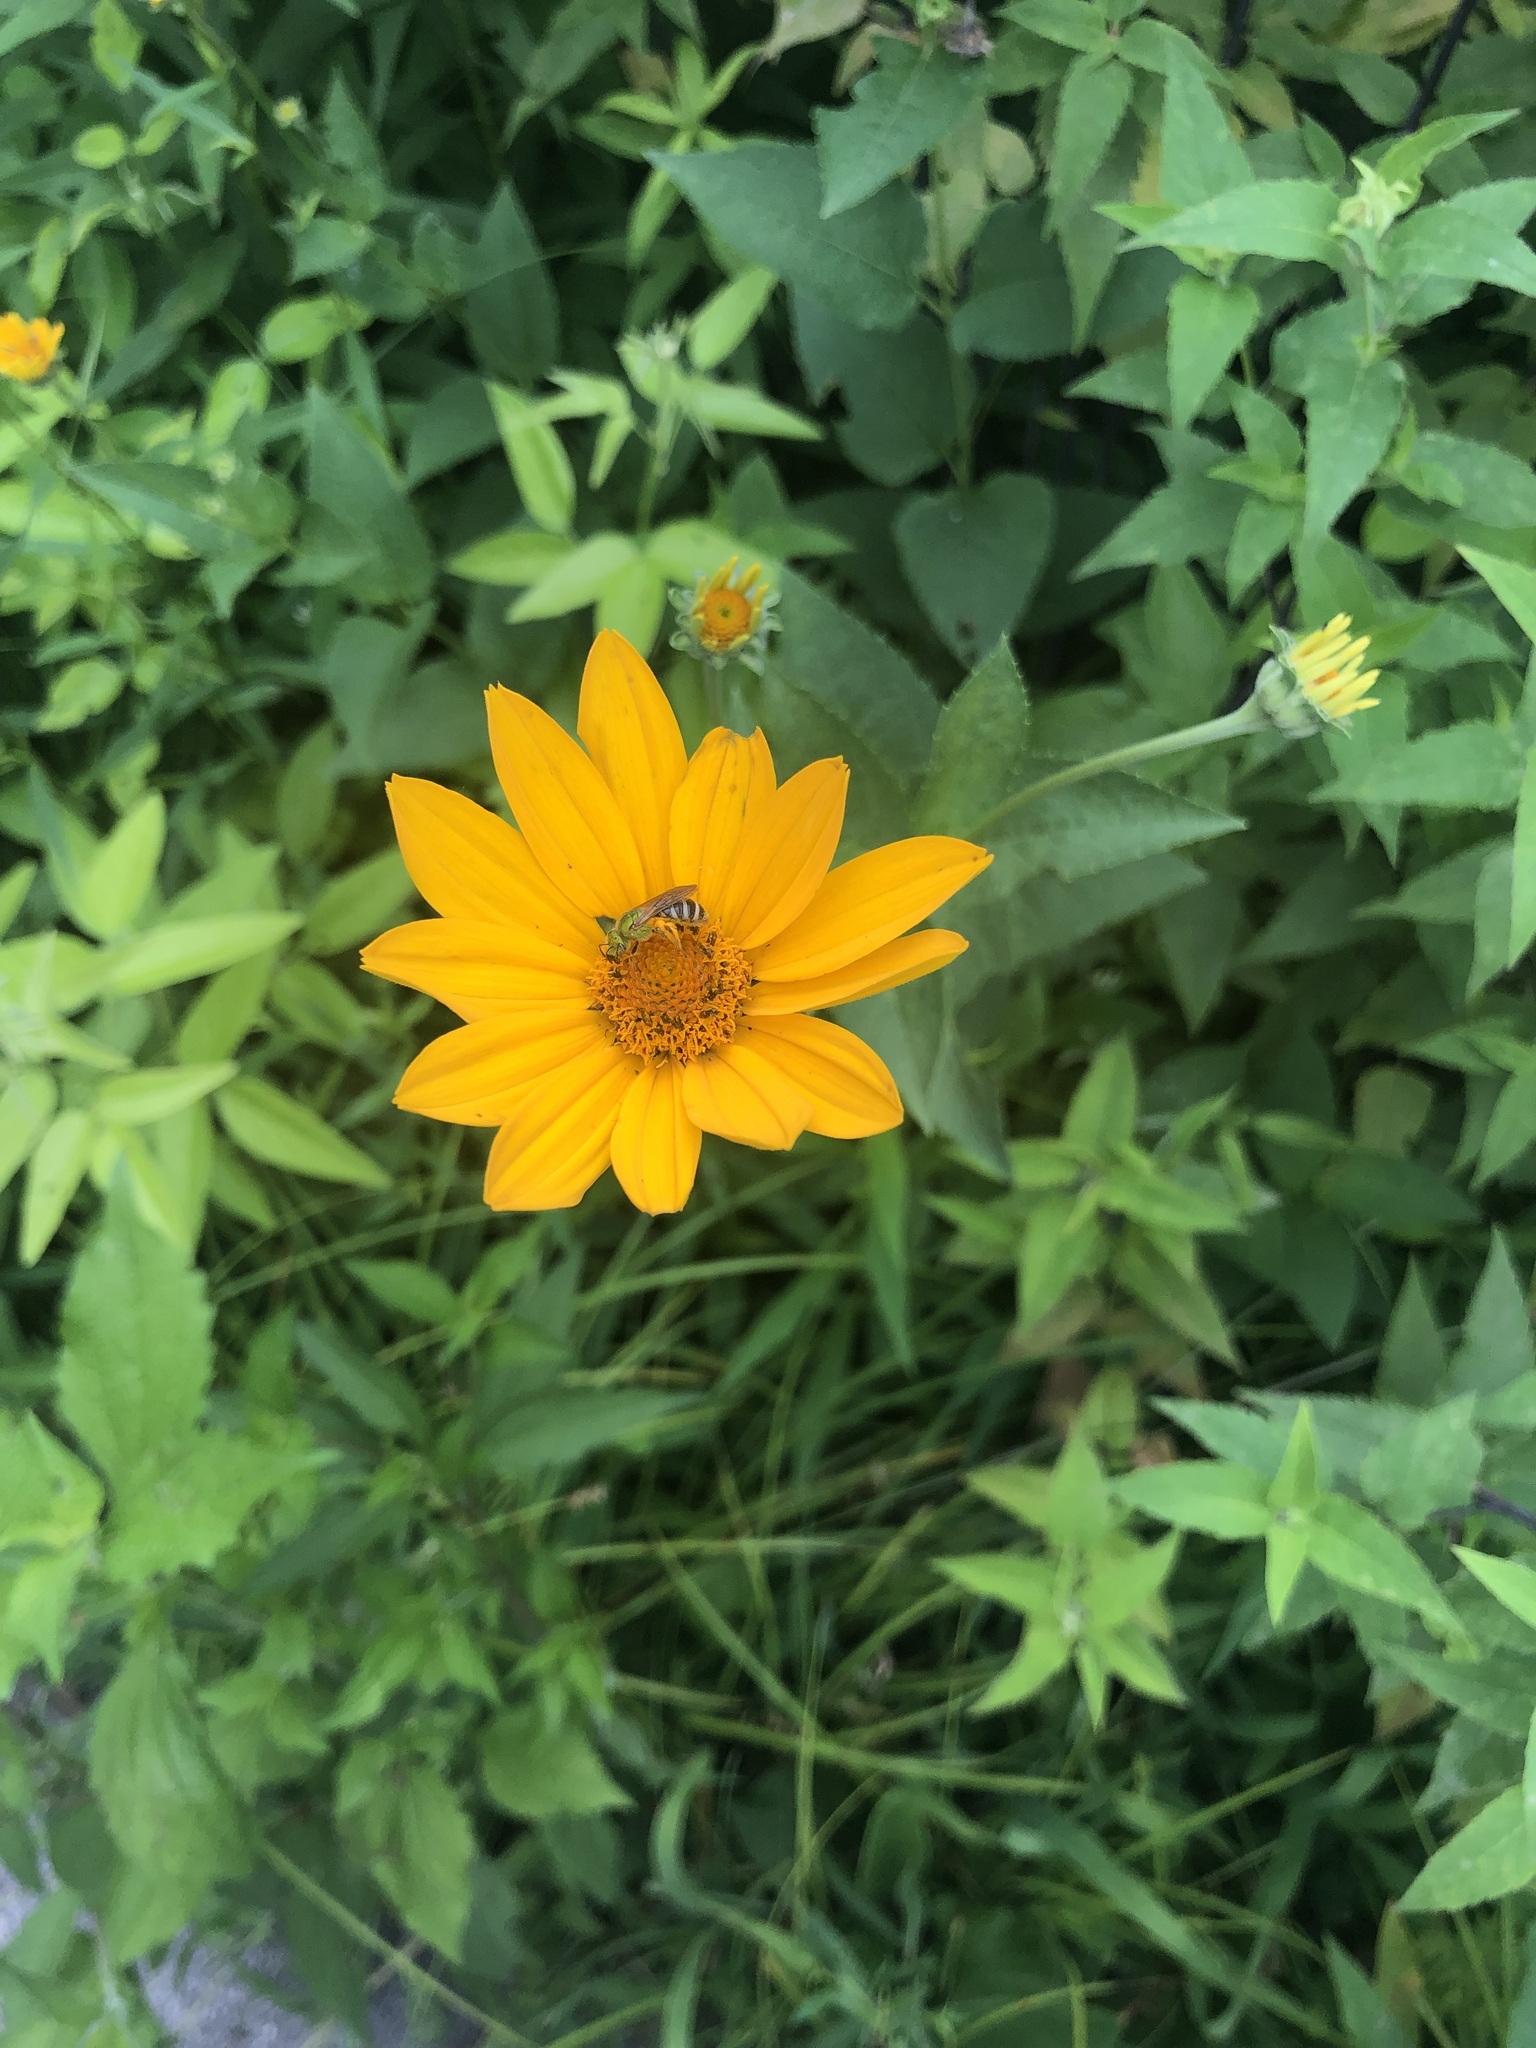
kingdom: Animalia
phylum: Arthropoda
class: Insecta
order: Hymenoptera
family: Halictidae
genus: Agapostemon
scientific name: Agapostemon virescens
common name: Bicolored striped sweat bee
